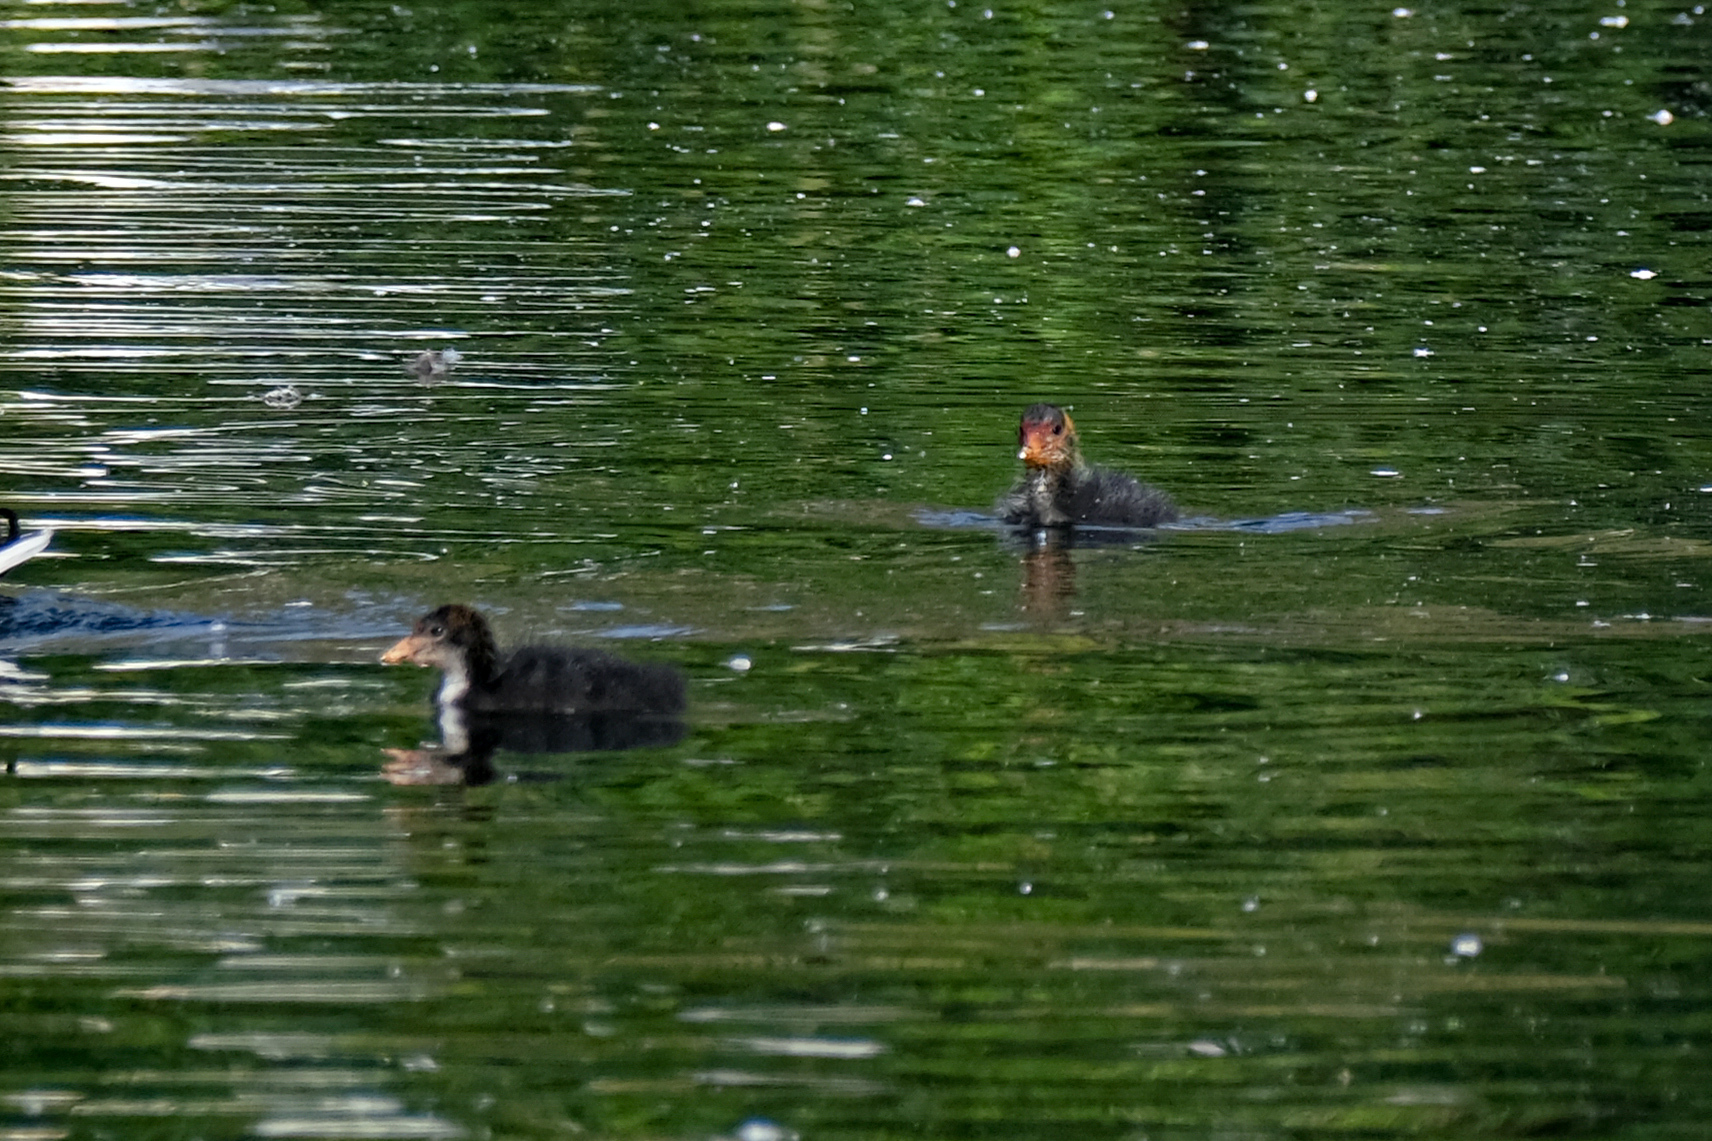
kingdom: Animalia
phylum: Chordata
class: Aves
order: Gruiformes
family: Rallidae
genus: Fulica
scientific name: Fulica atra
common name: Eurasian coot
